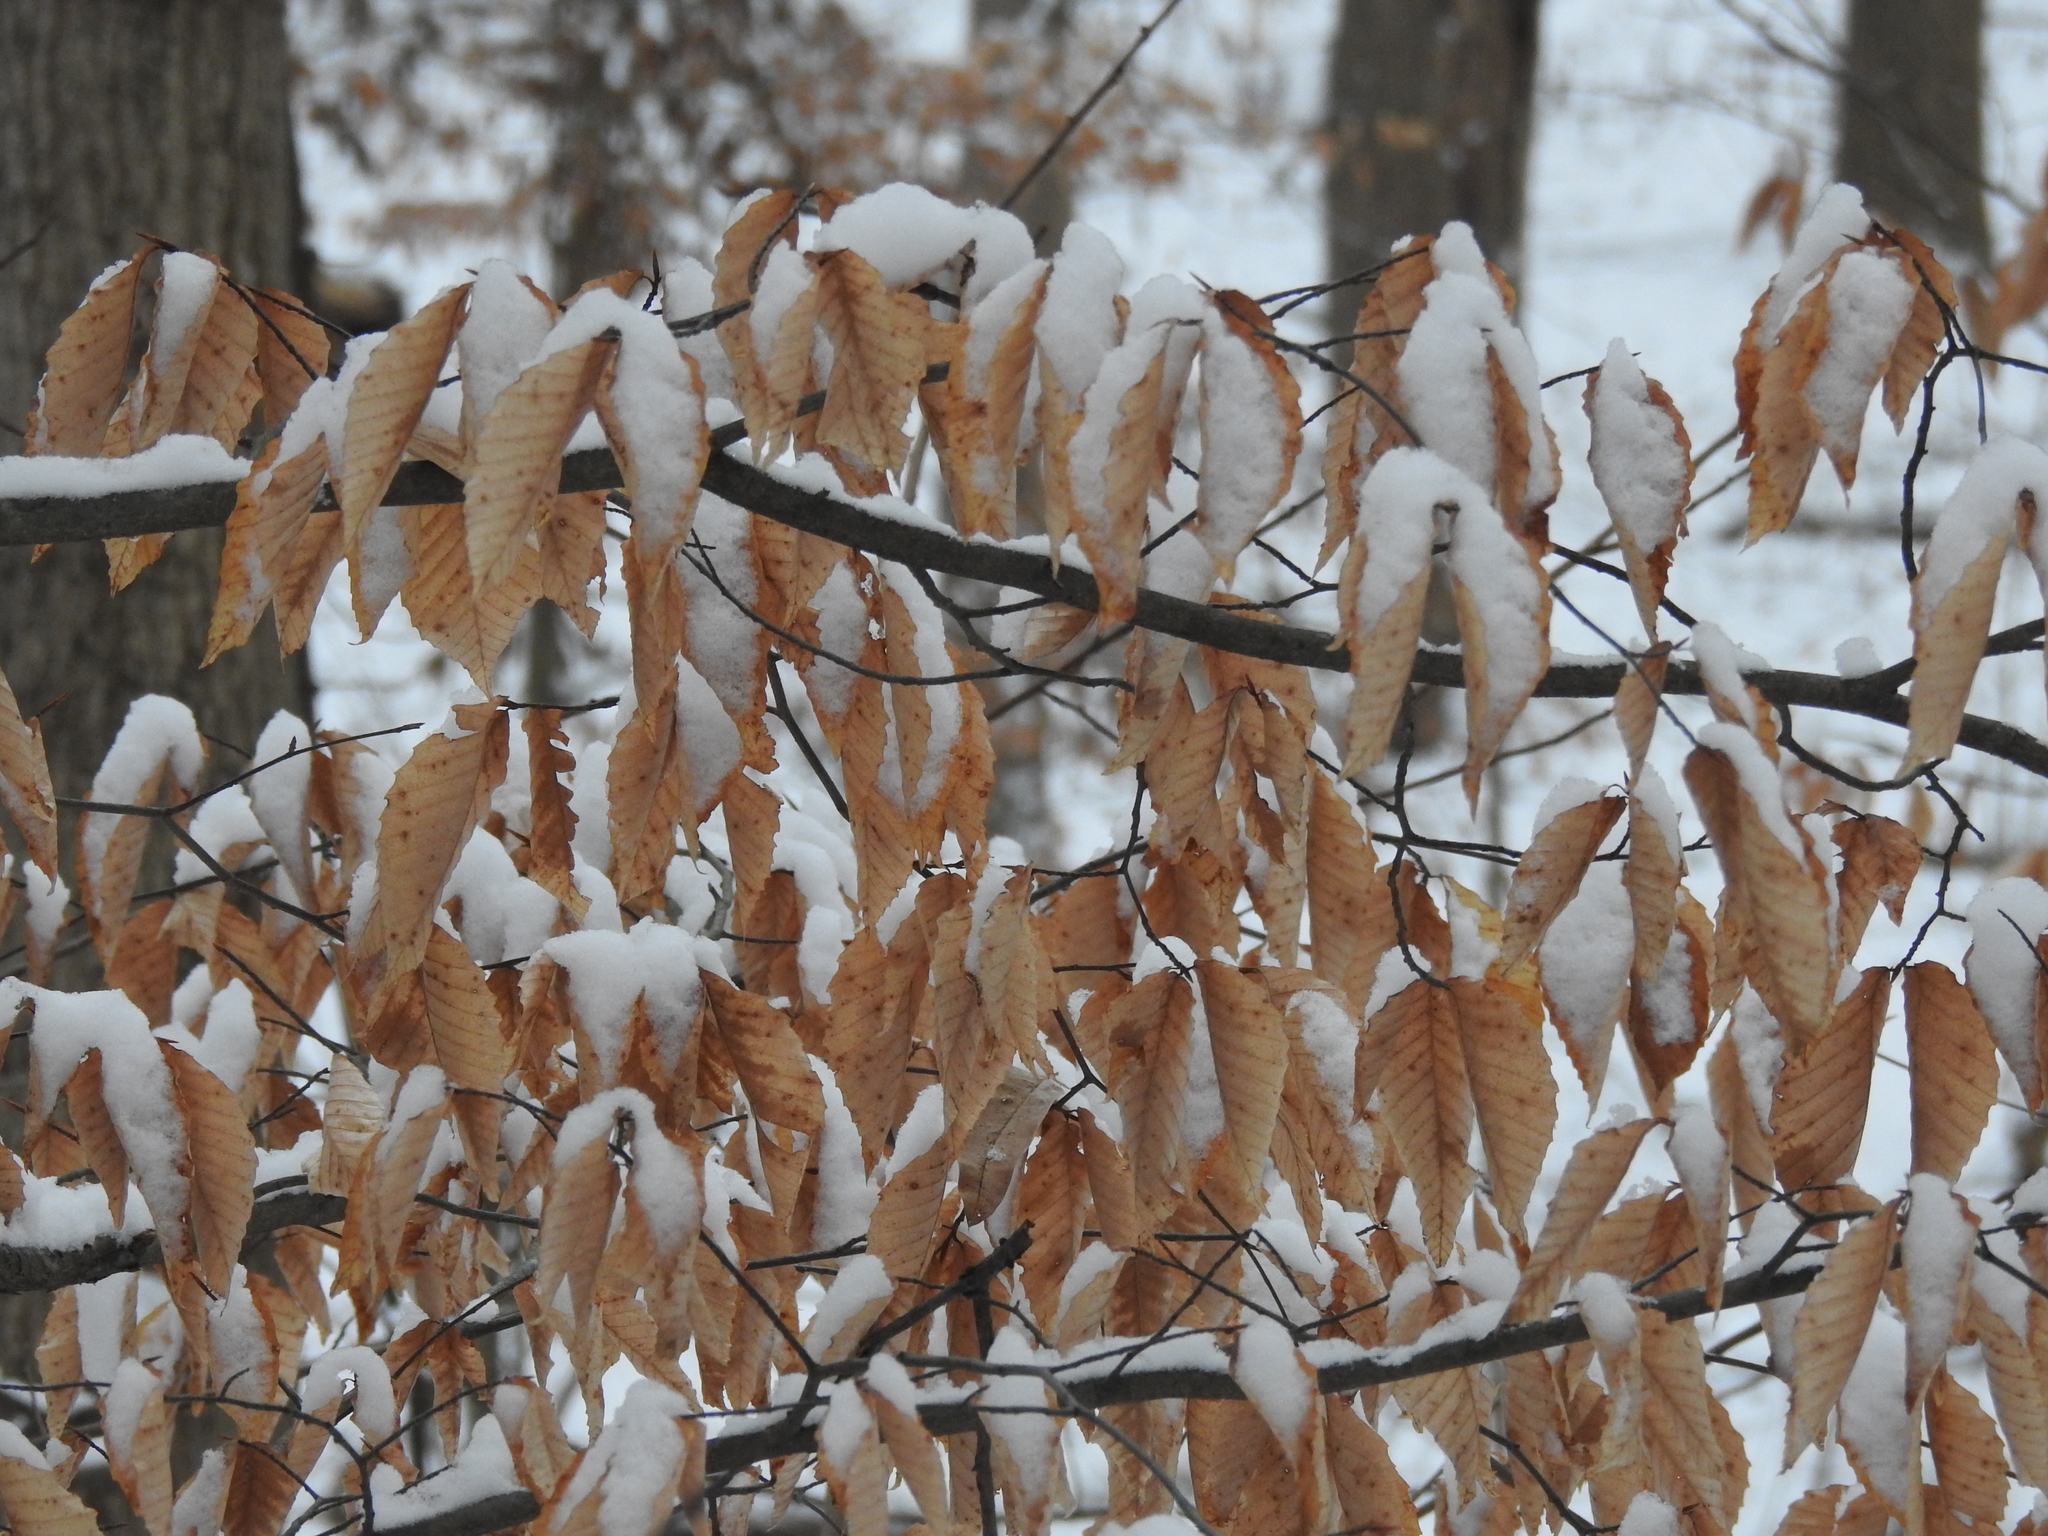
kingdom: Plantae
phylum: Tracheophyta
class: Magnoliopsida
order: Fagales
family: Fagaceae
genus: Fagus
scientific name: Fagus grandifolia
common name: American beech
